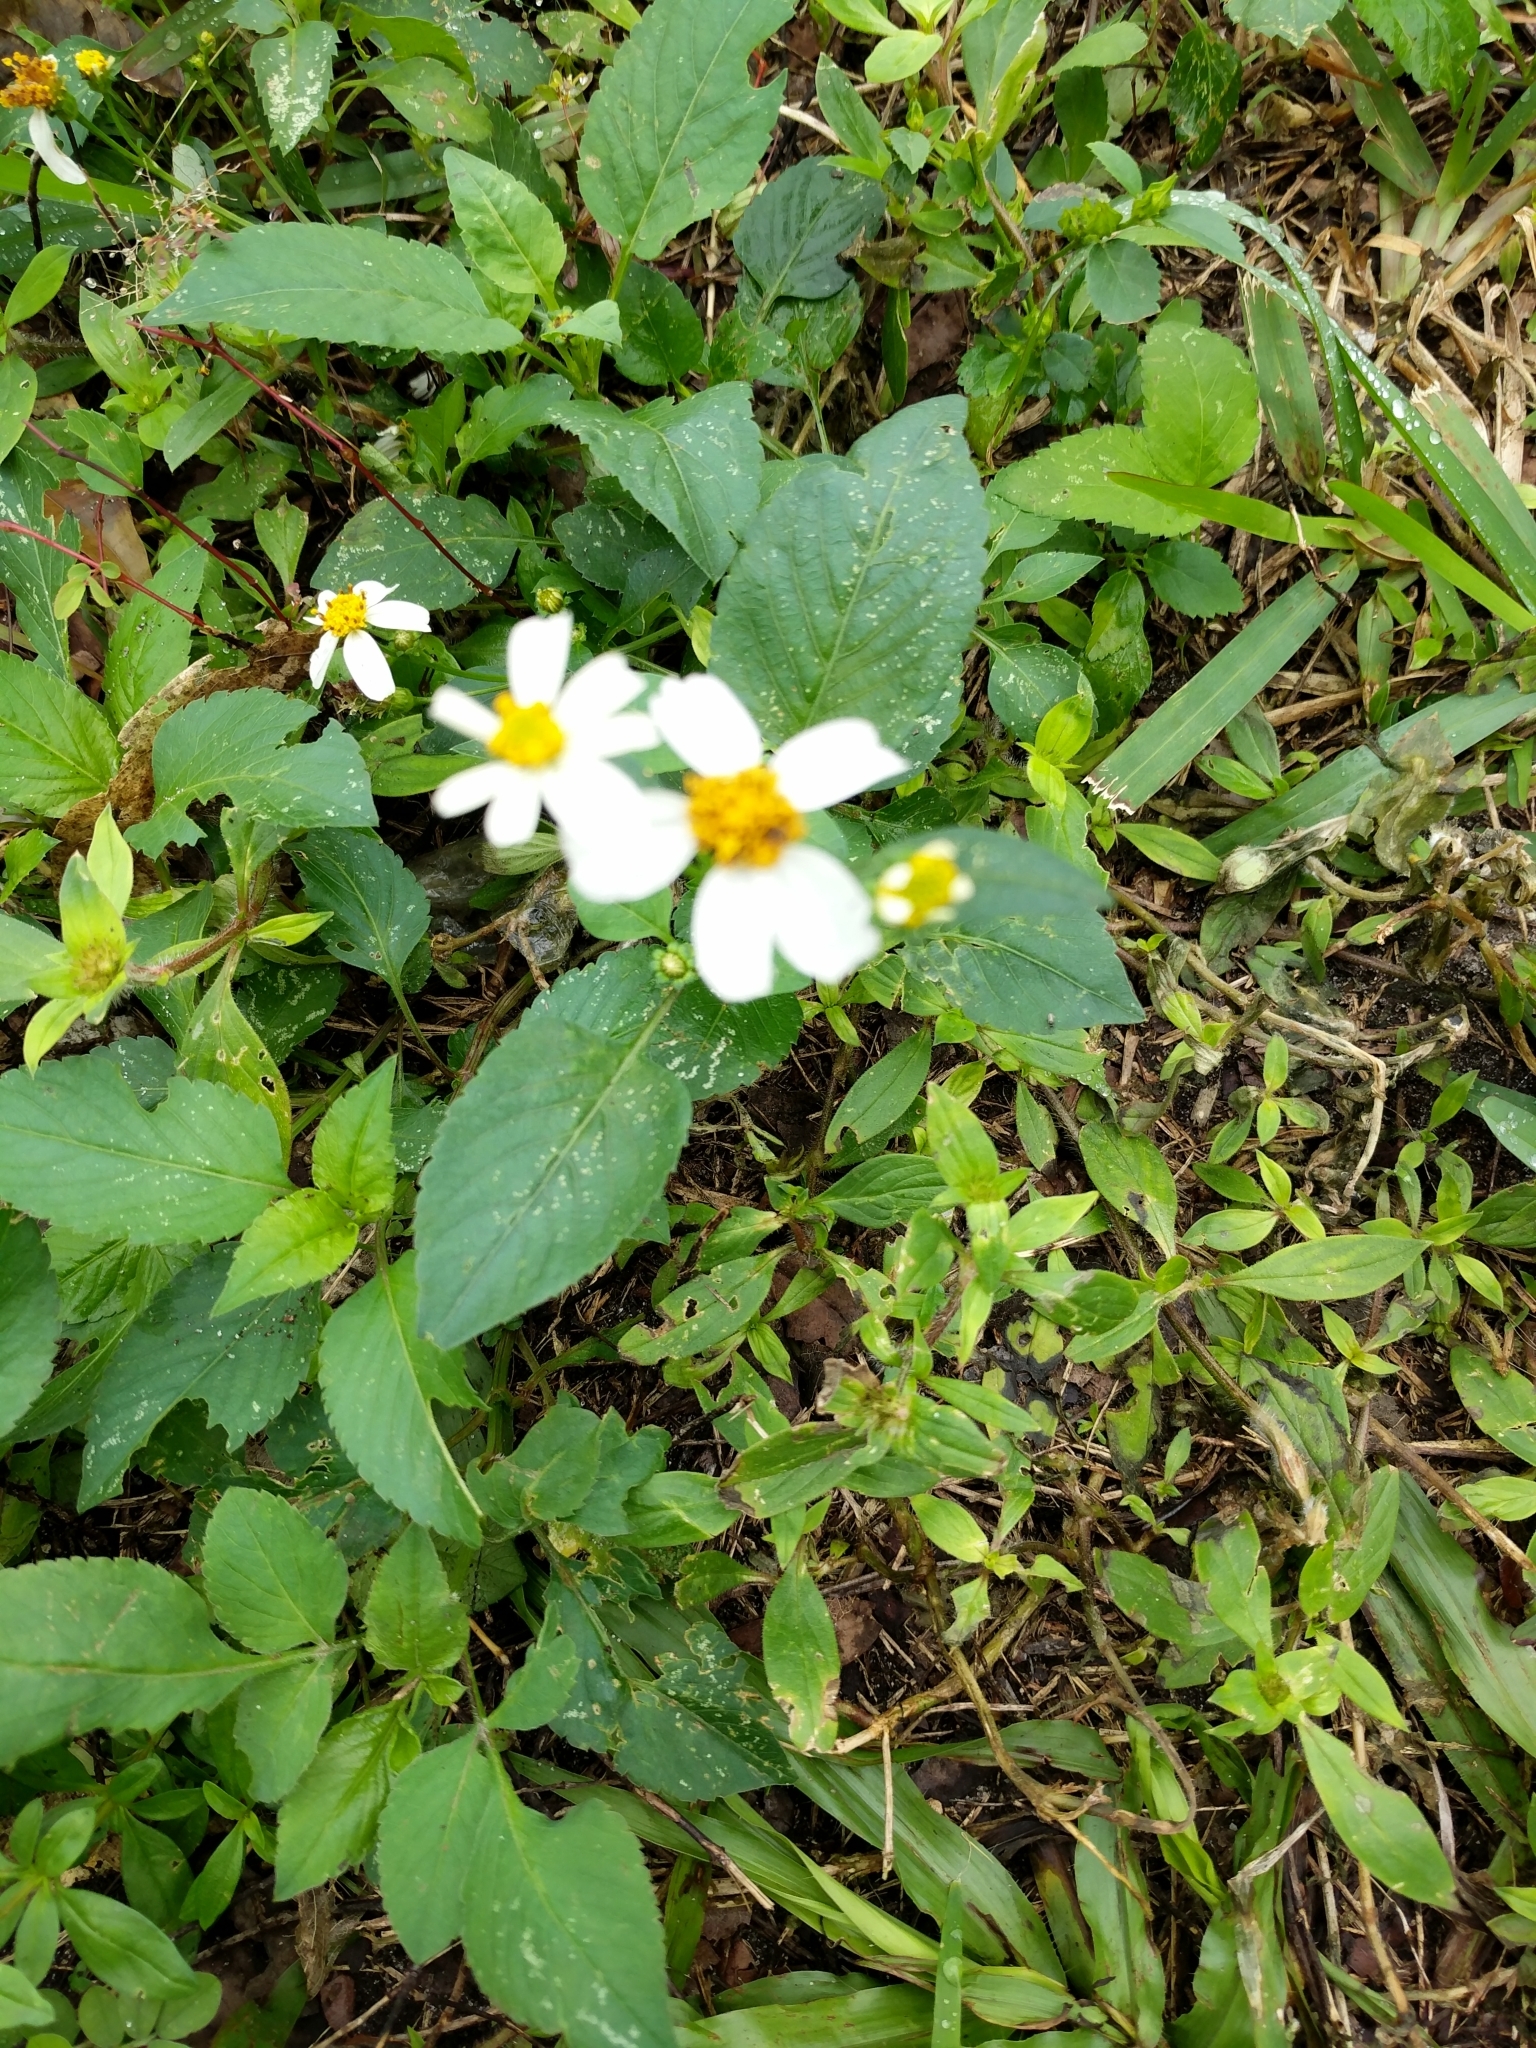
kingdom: Plantae
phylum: Tracheophyta
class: Magnoliopsida
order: Asterales
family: Asteraceae
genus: Bidens
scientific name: Bidens alba
